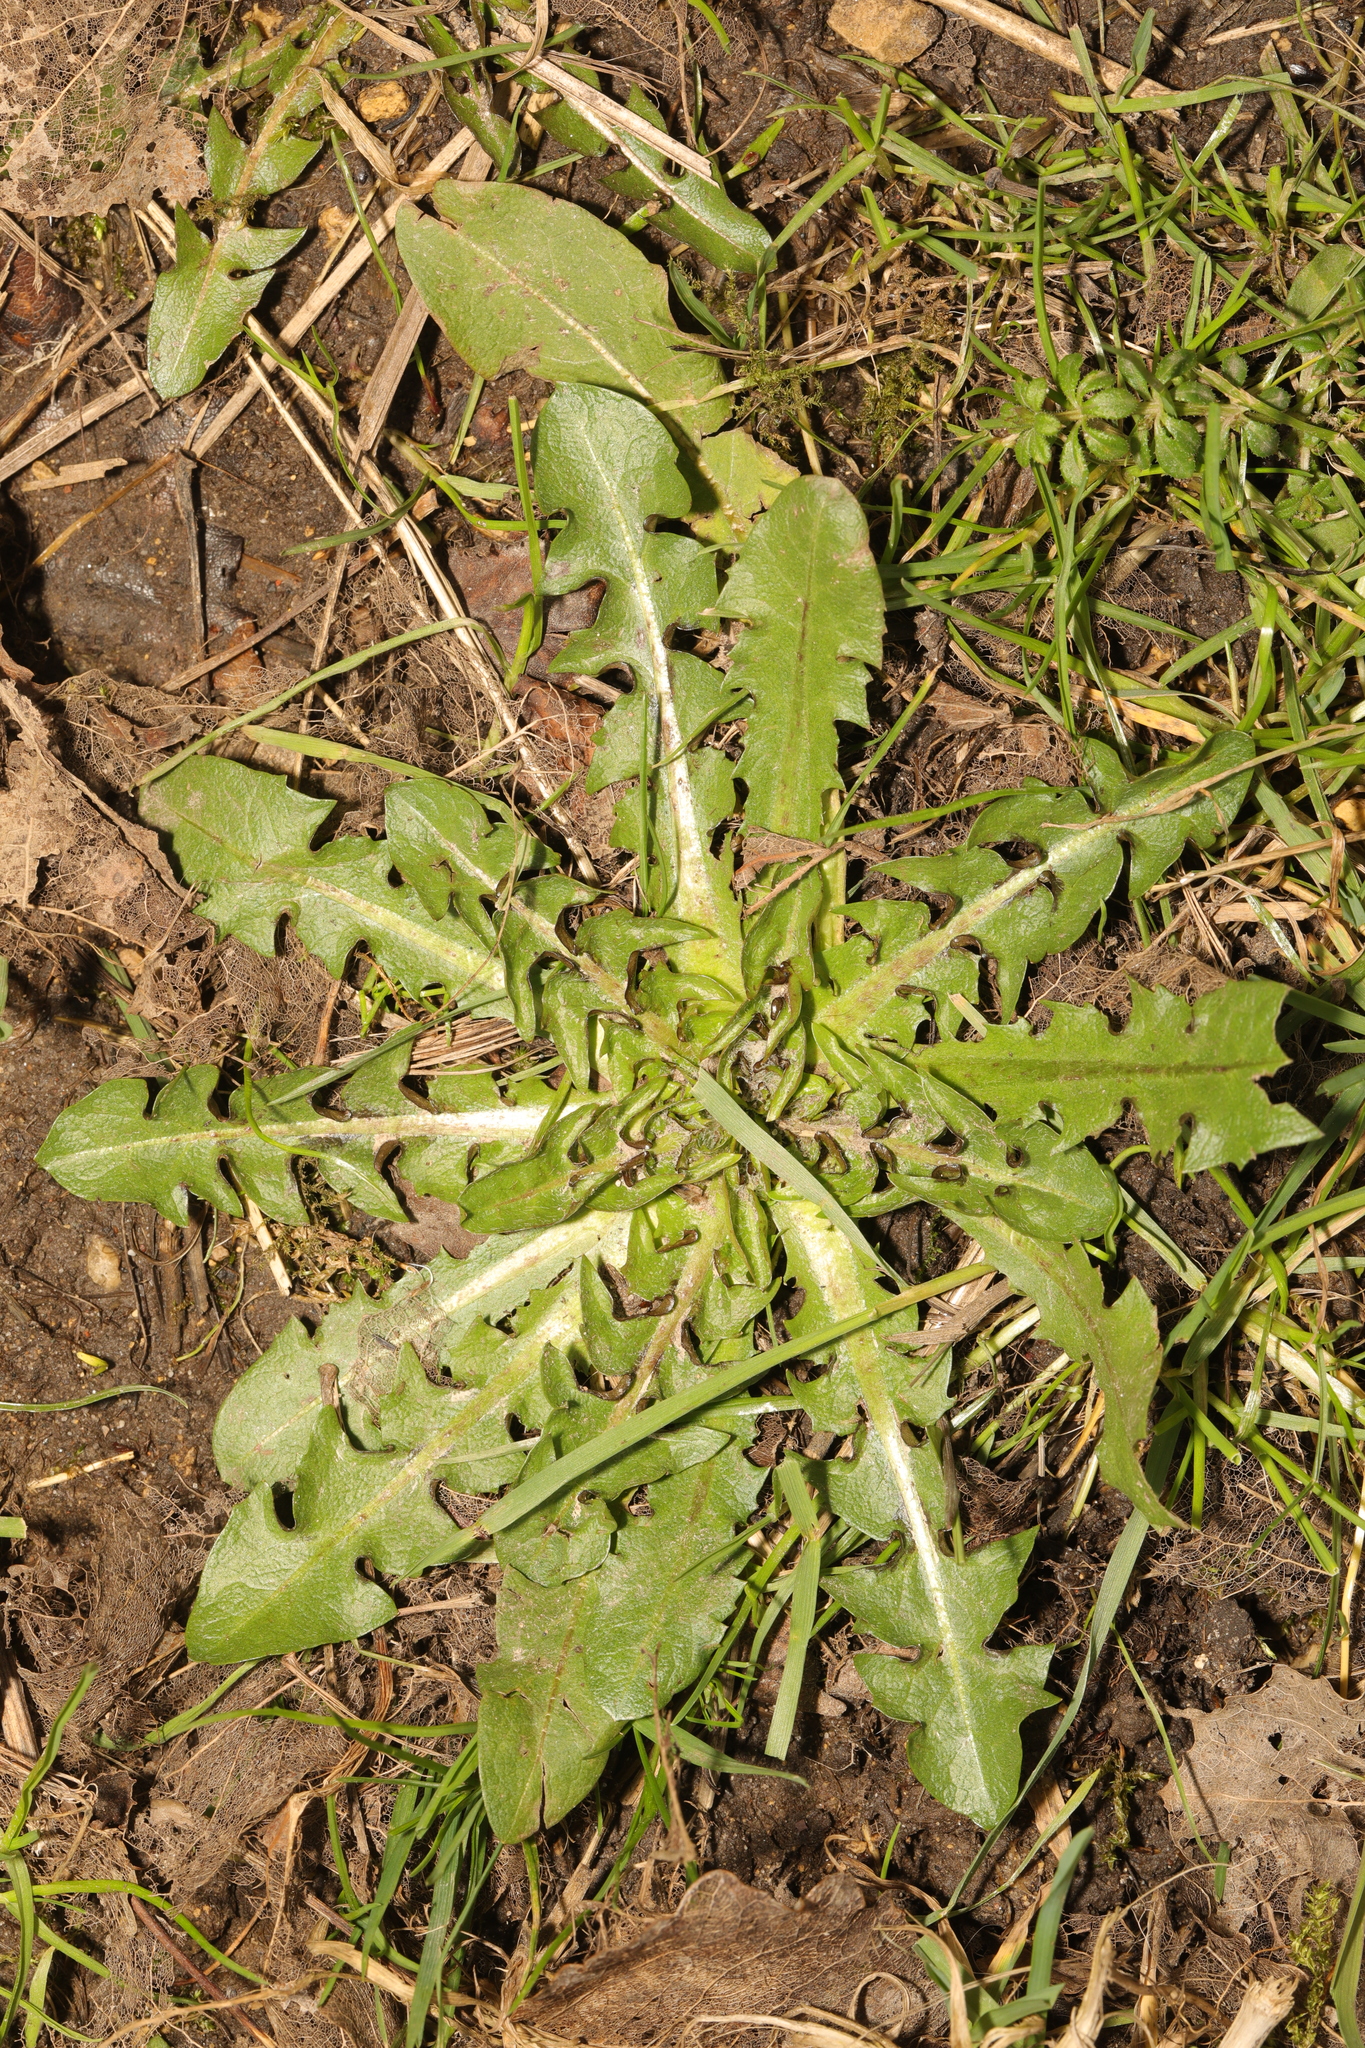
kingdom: Plantae
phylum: Tracheophyta
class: Magnoliopsida
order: Asterales
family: Asteraceae
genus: Taraxacum
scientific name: Taraxacum officinale
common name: Common dandelion
